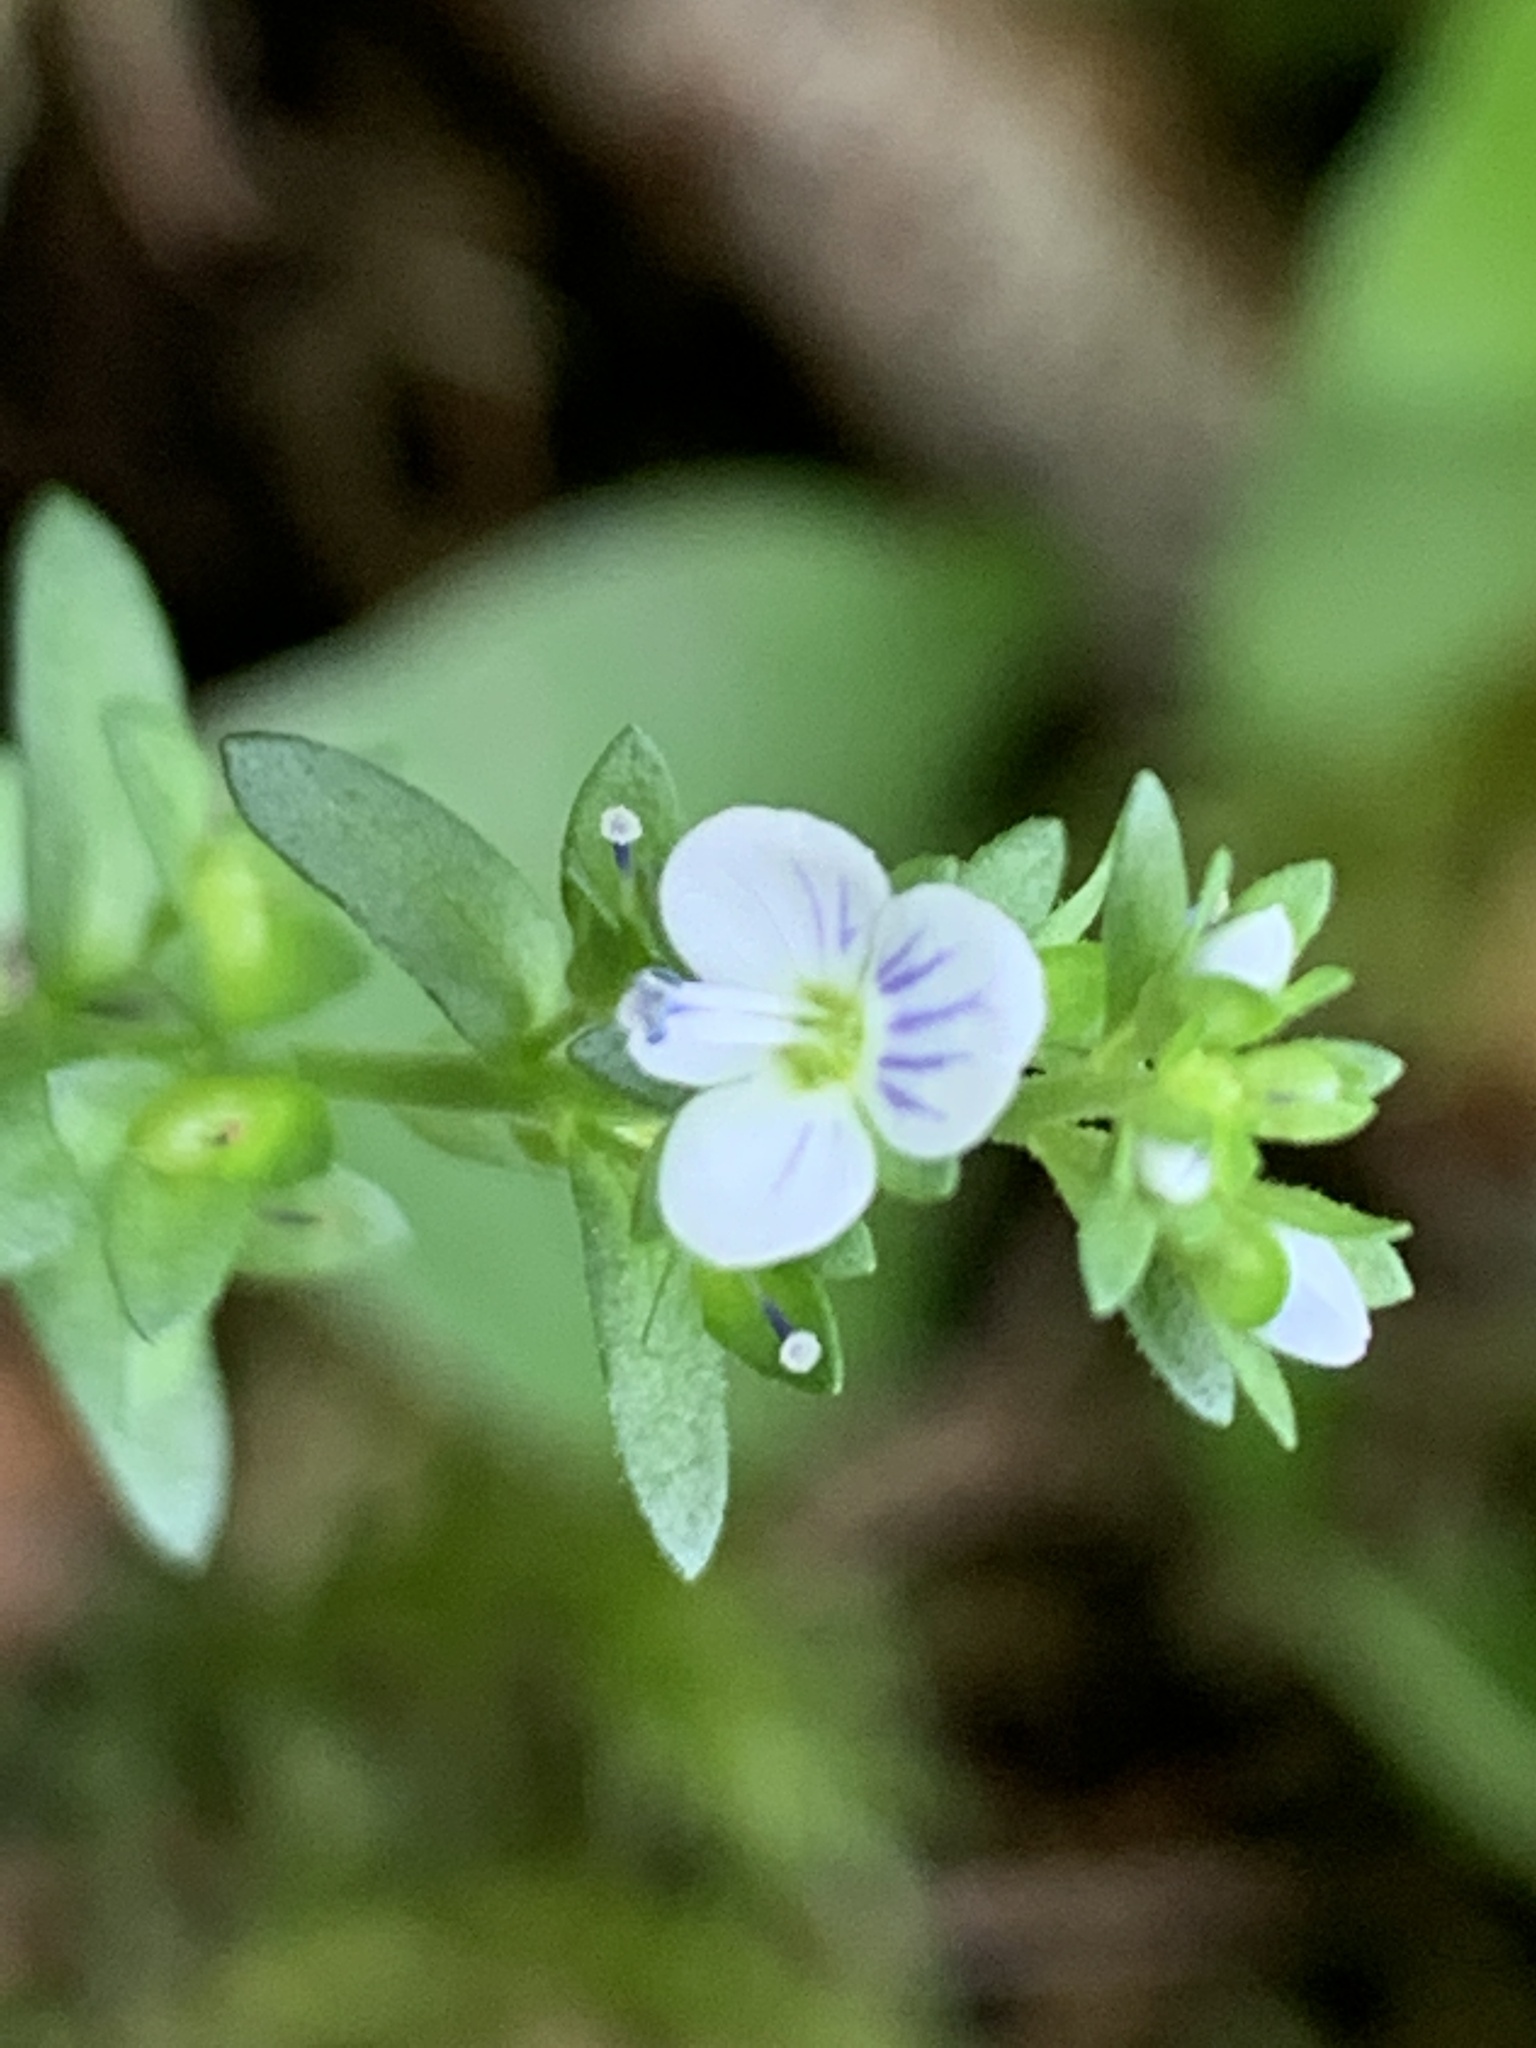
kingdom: Plantae
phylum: Tracheophyta
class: Magnoliopsida
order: Lamiales
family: Plantaginaceae
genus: Veronica
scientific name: Veronica serpyllifolia
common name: Thyme-leaved speedwell
